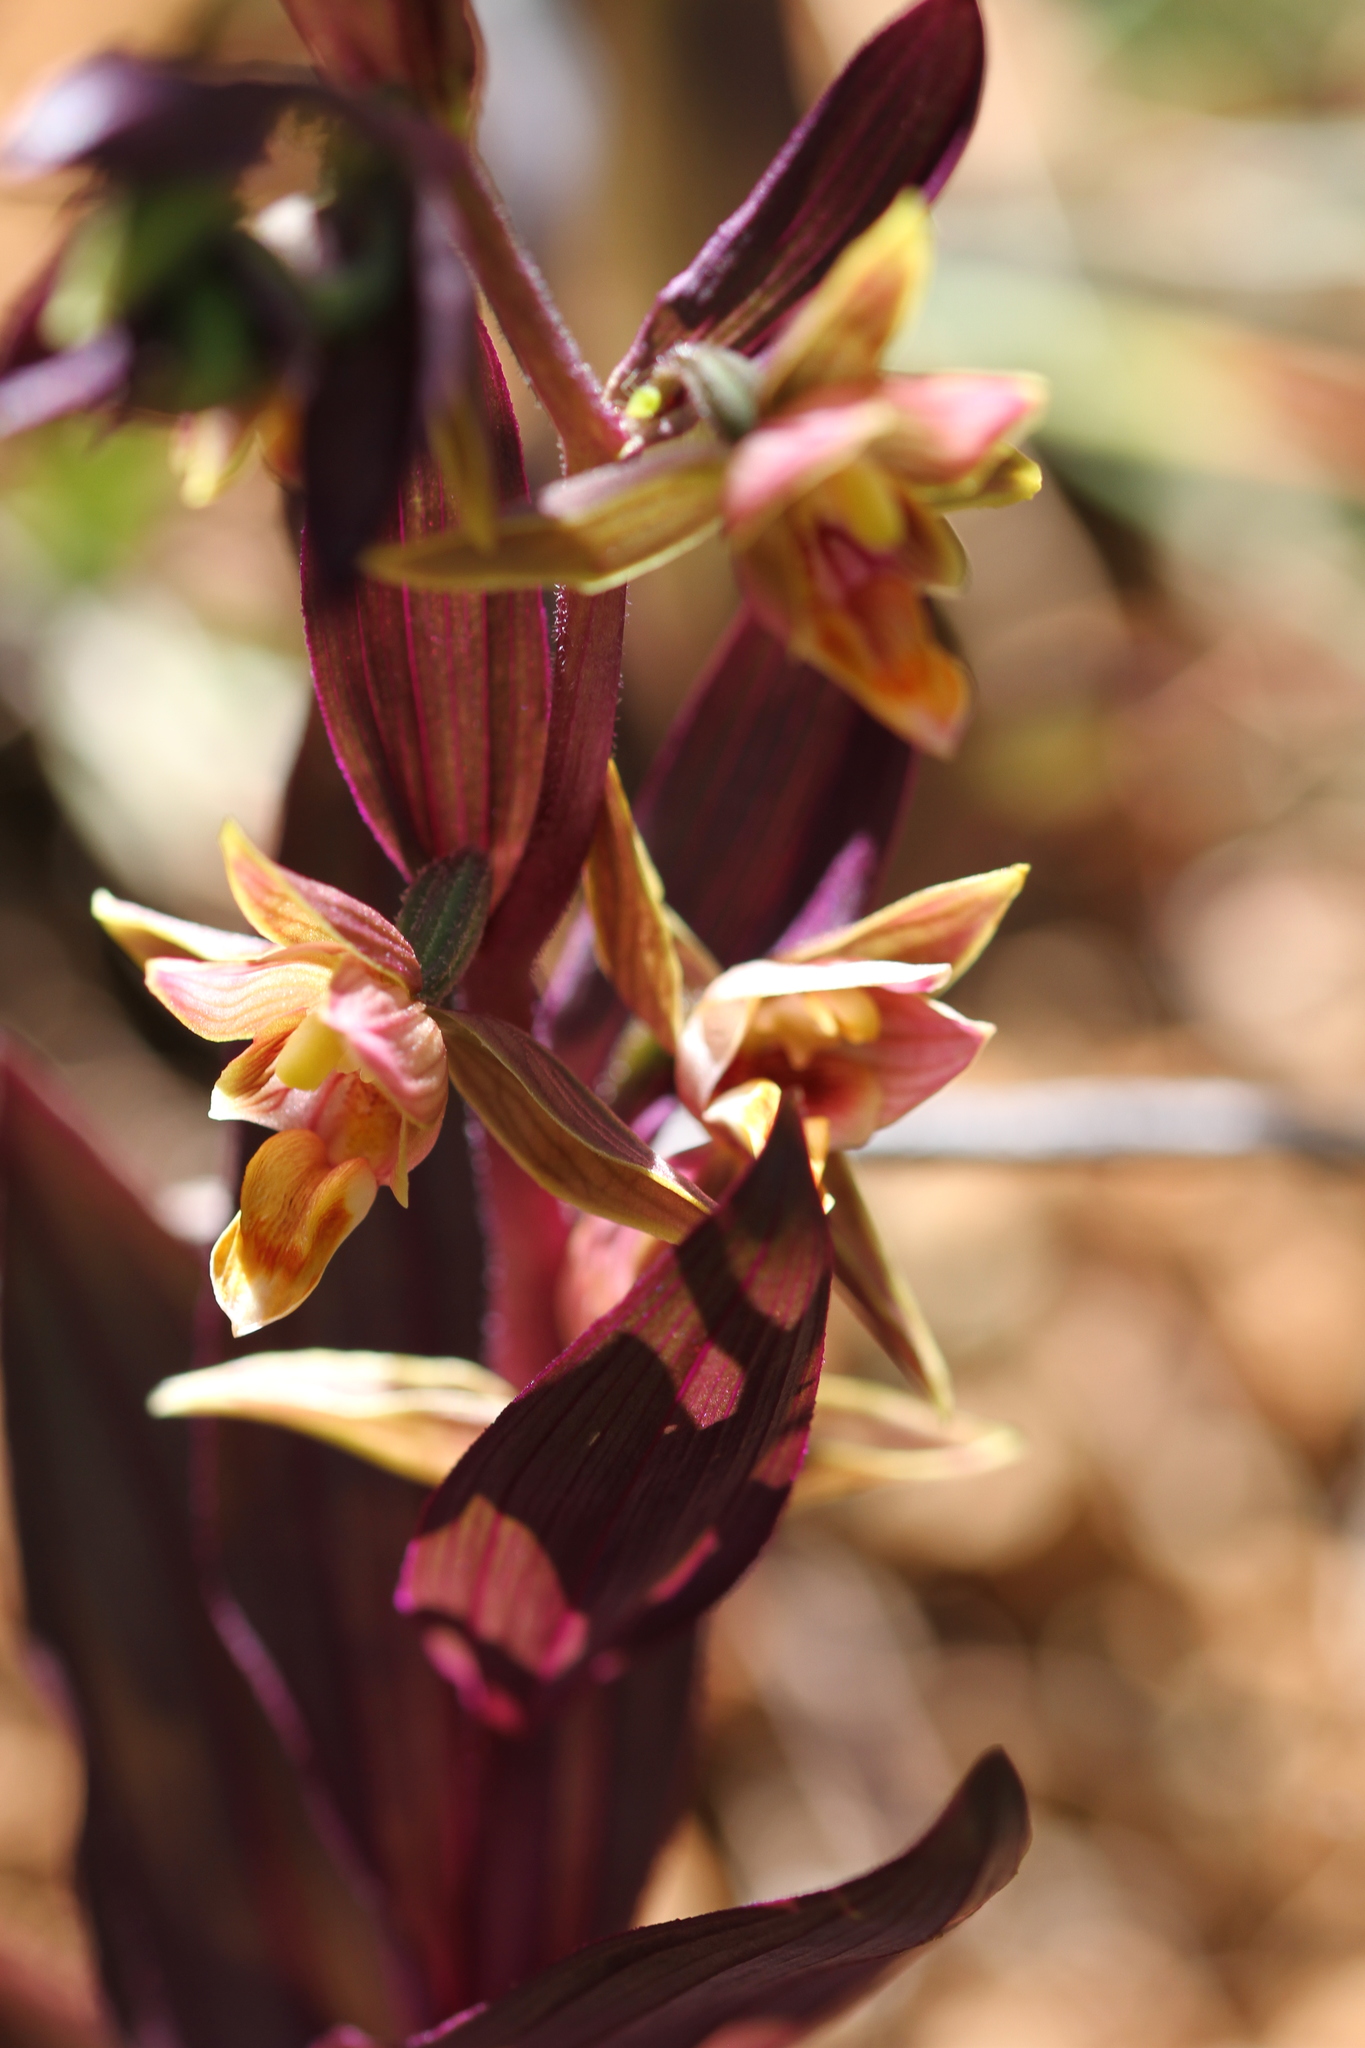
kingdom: Plantae
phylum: Tracheophyta
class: Liliopsida
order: Asparagales
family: Orchidaceae
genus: Epipactis
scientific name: Epipactis gigantea
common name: Chatterbox
